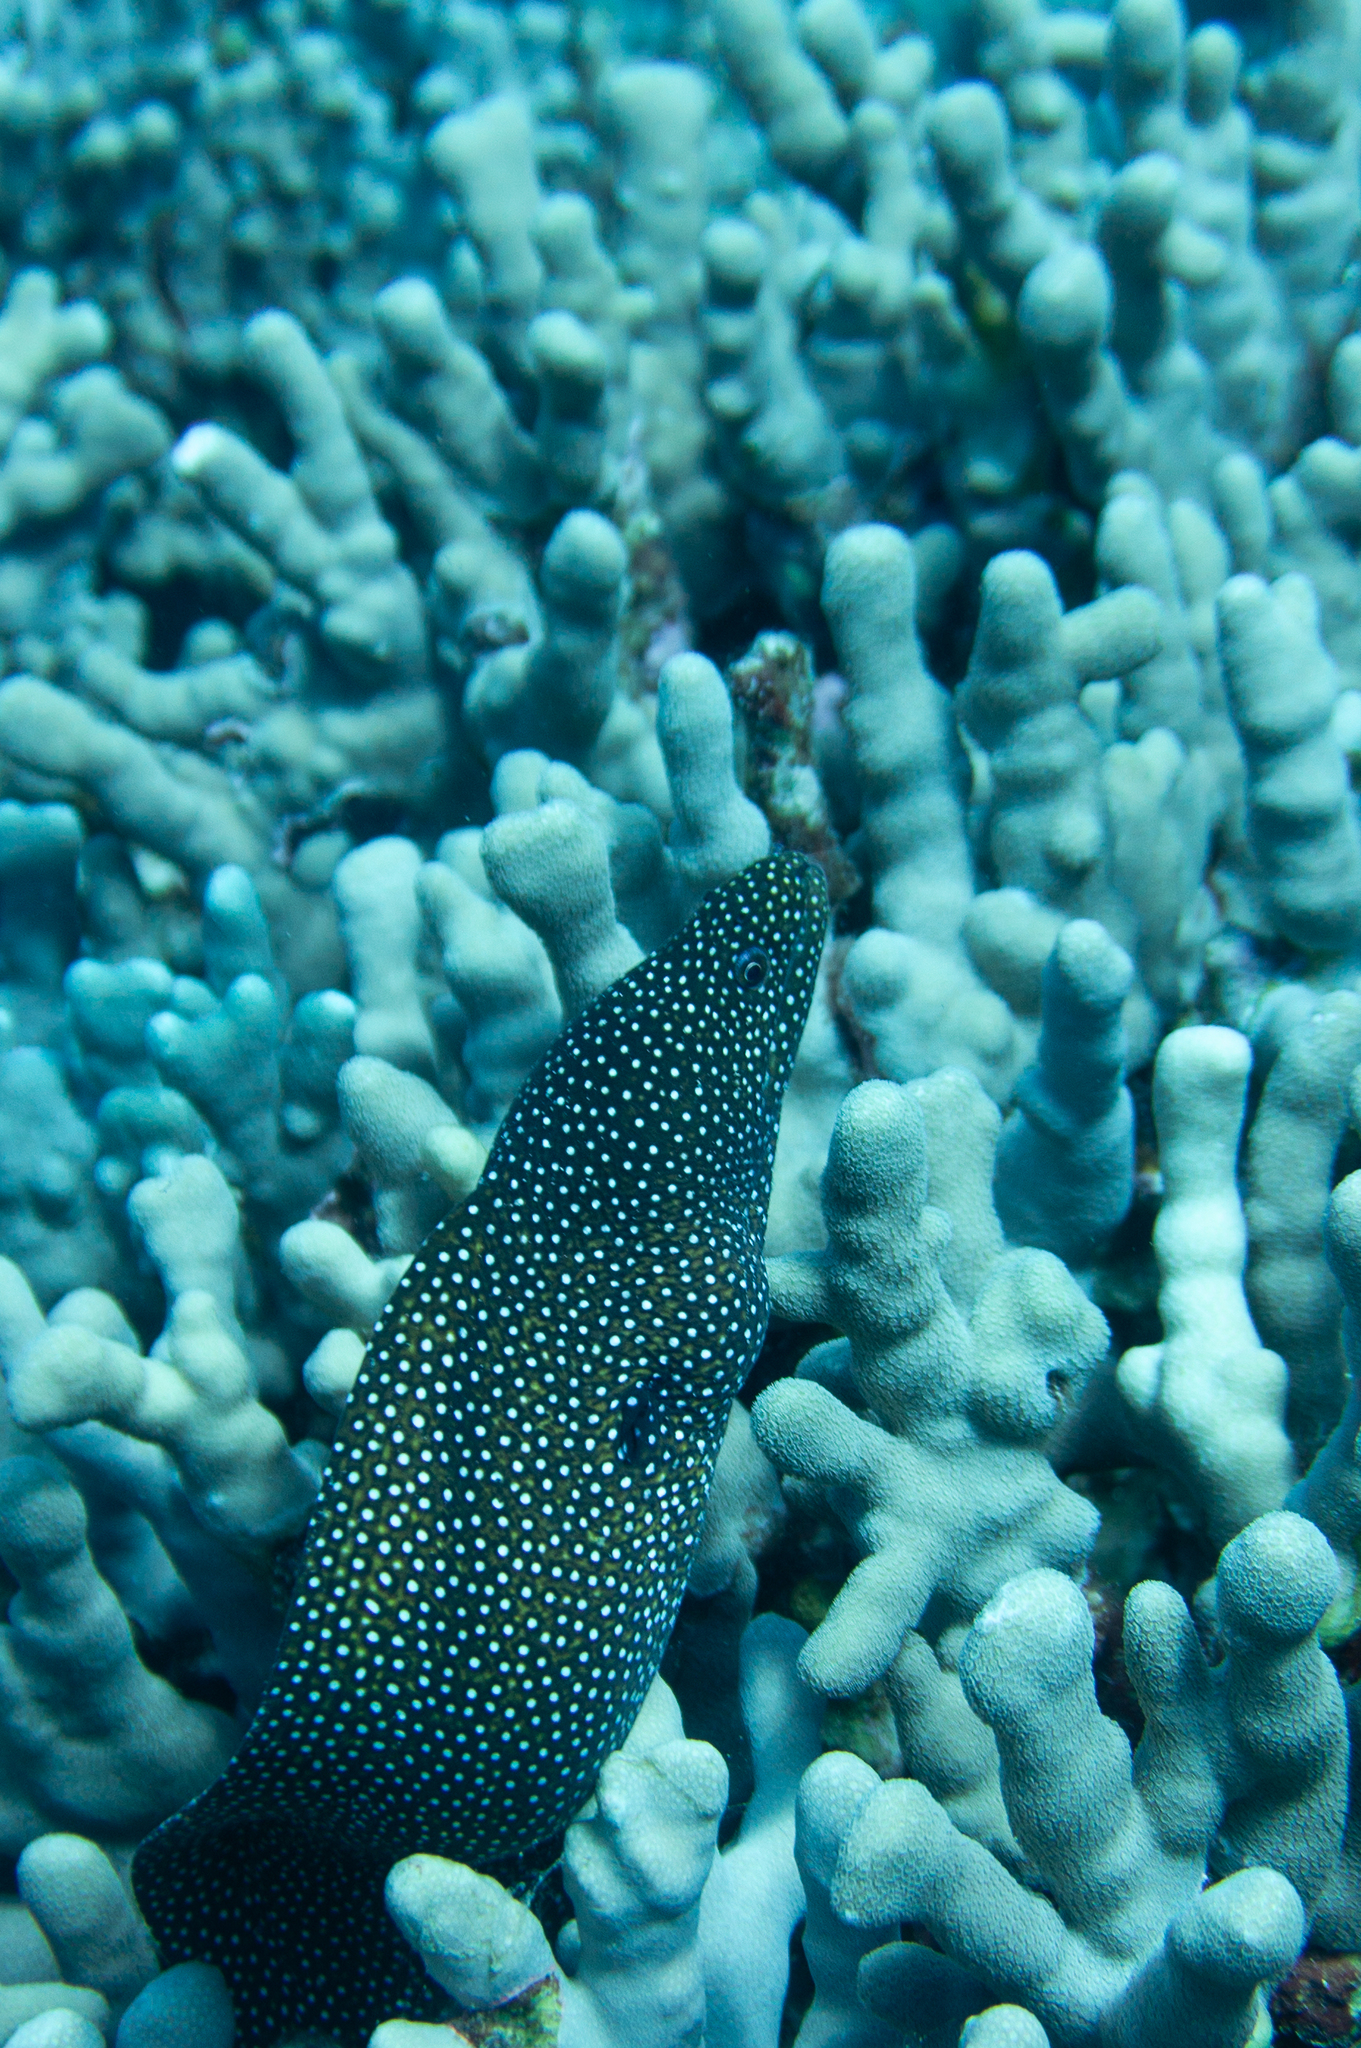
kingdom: Animalia
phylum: Chordata
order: Anguilliformes
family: Muraenidae
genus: Gymnothorax
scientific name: Gymnothorax meleagris
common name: Guineafowl moray
